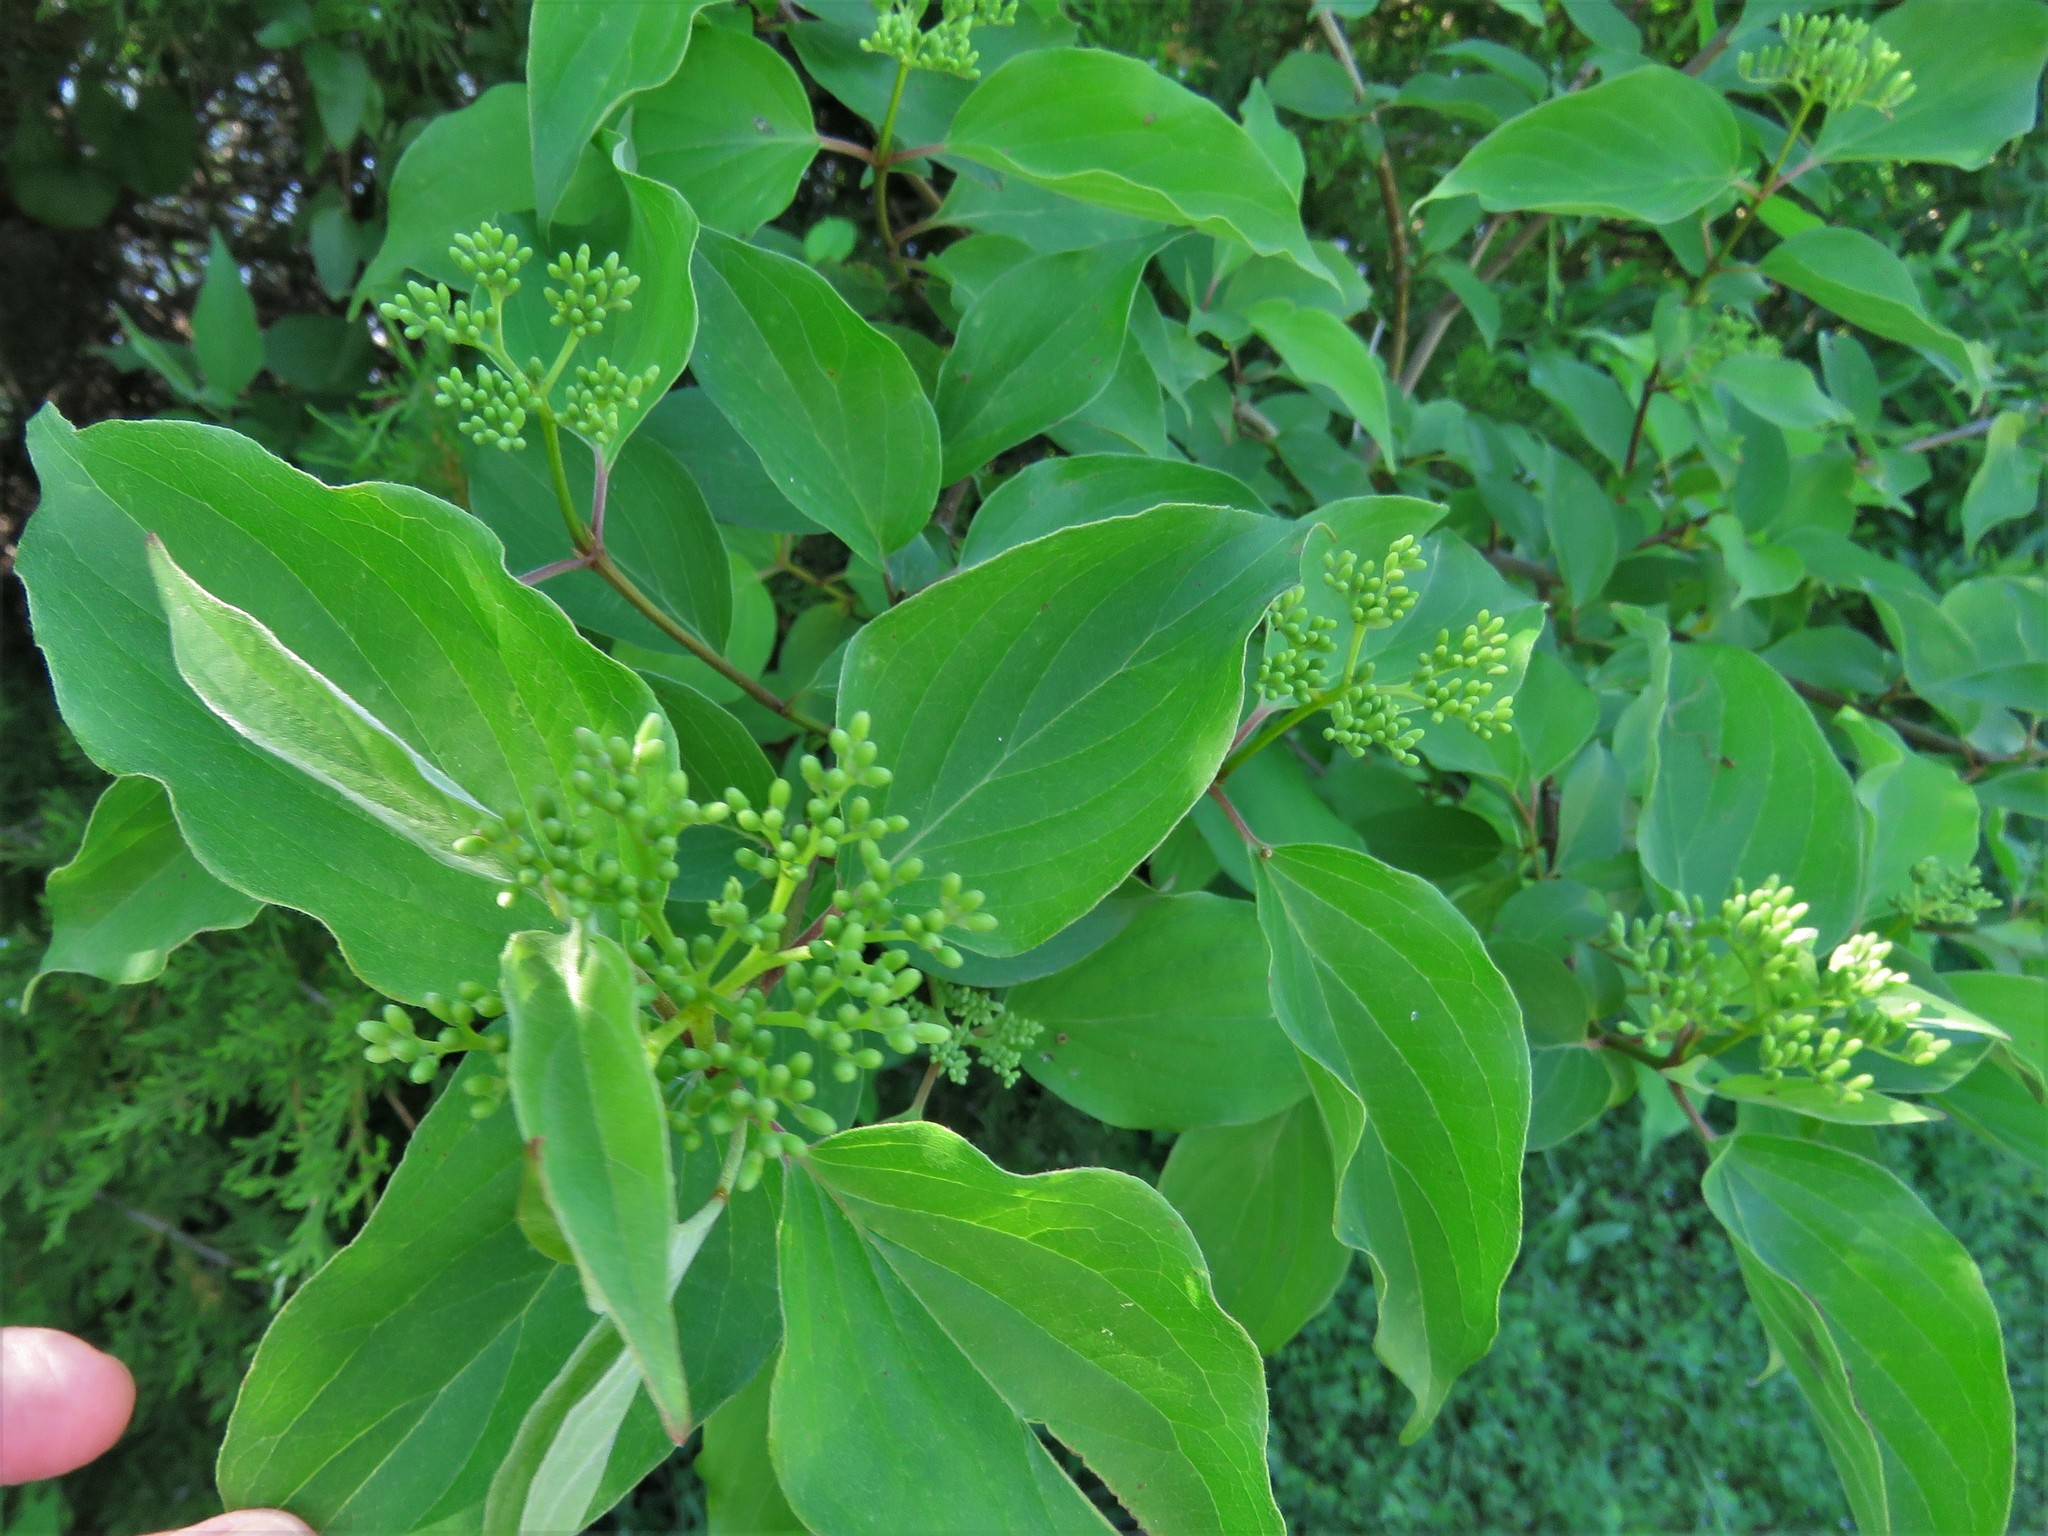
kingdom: Plantae
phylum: Tracheophyta
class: Magnoliopsida
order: Cornales
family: Cornaceae
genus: Cornus
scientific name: Cornus drummondii
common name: Rough-leaf dogwood
